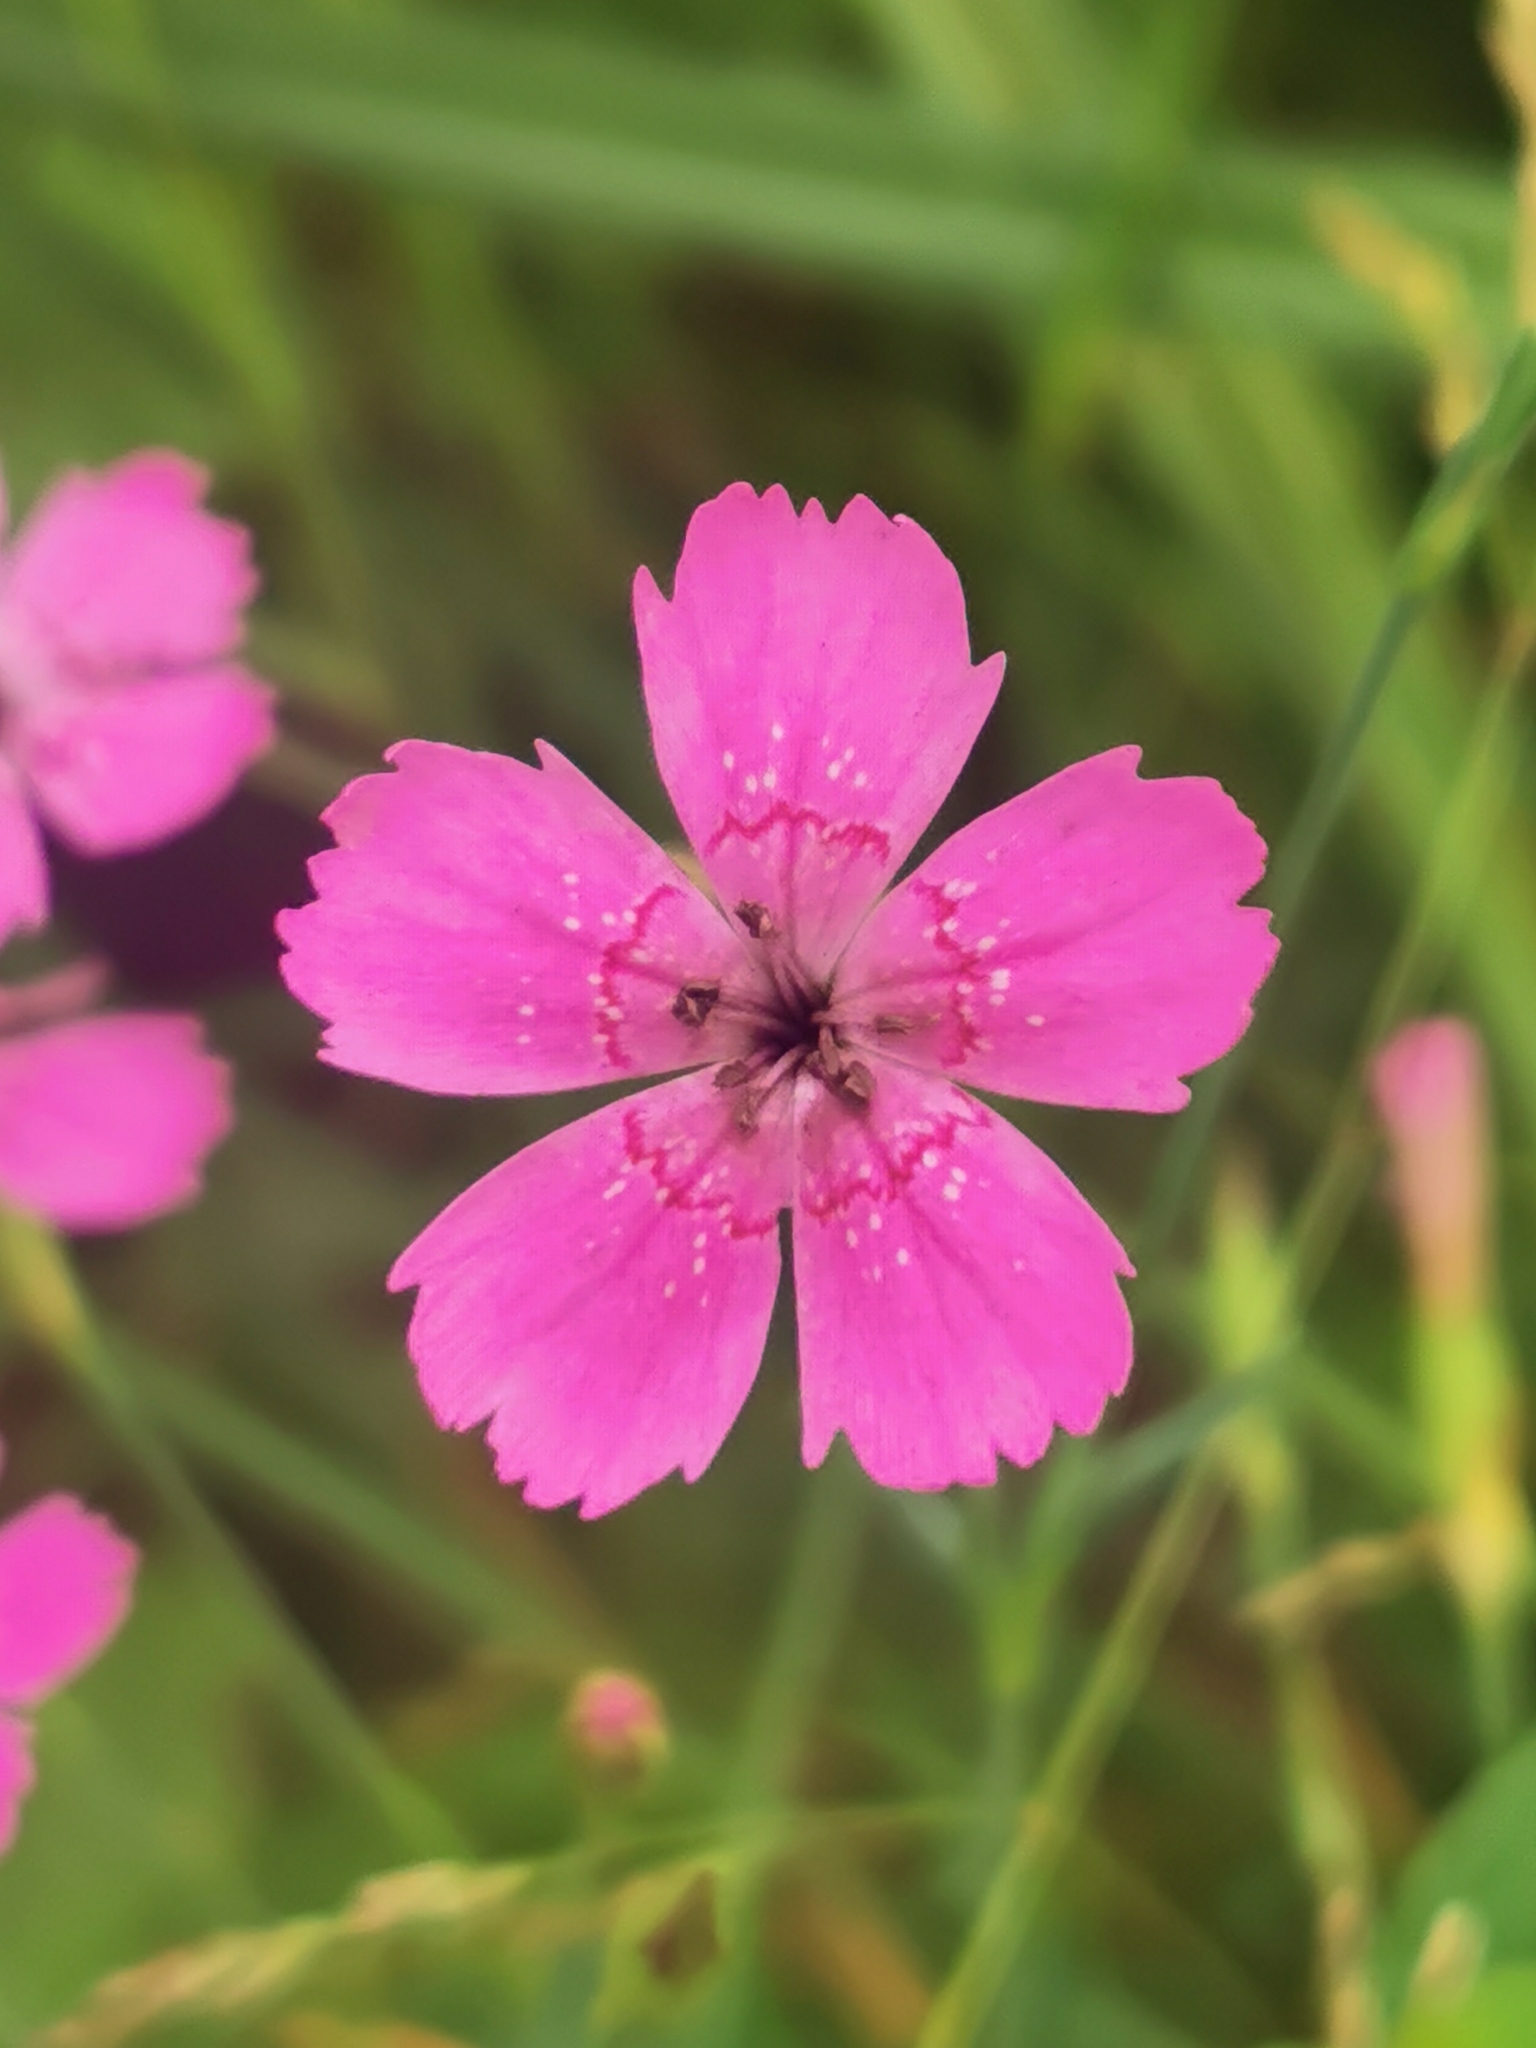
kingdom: Plantae
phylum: Tracheophyta
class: Magnoliopsida
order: Caryophyllales
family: Caryophyllaceae
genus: Dianthus
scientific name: Dianthus deltoides
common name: Maiden pink
